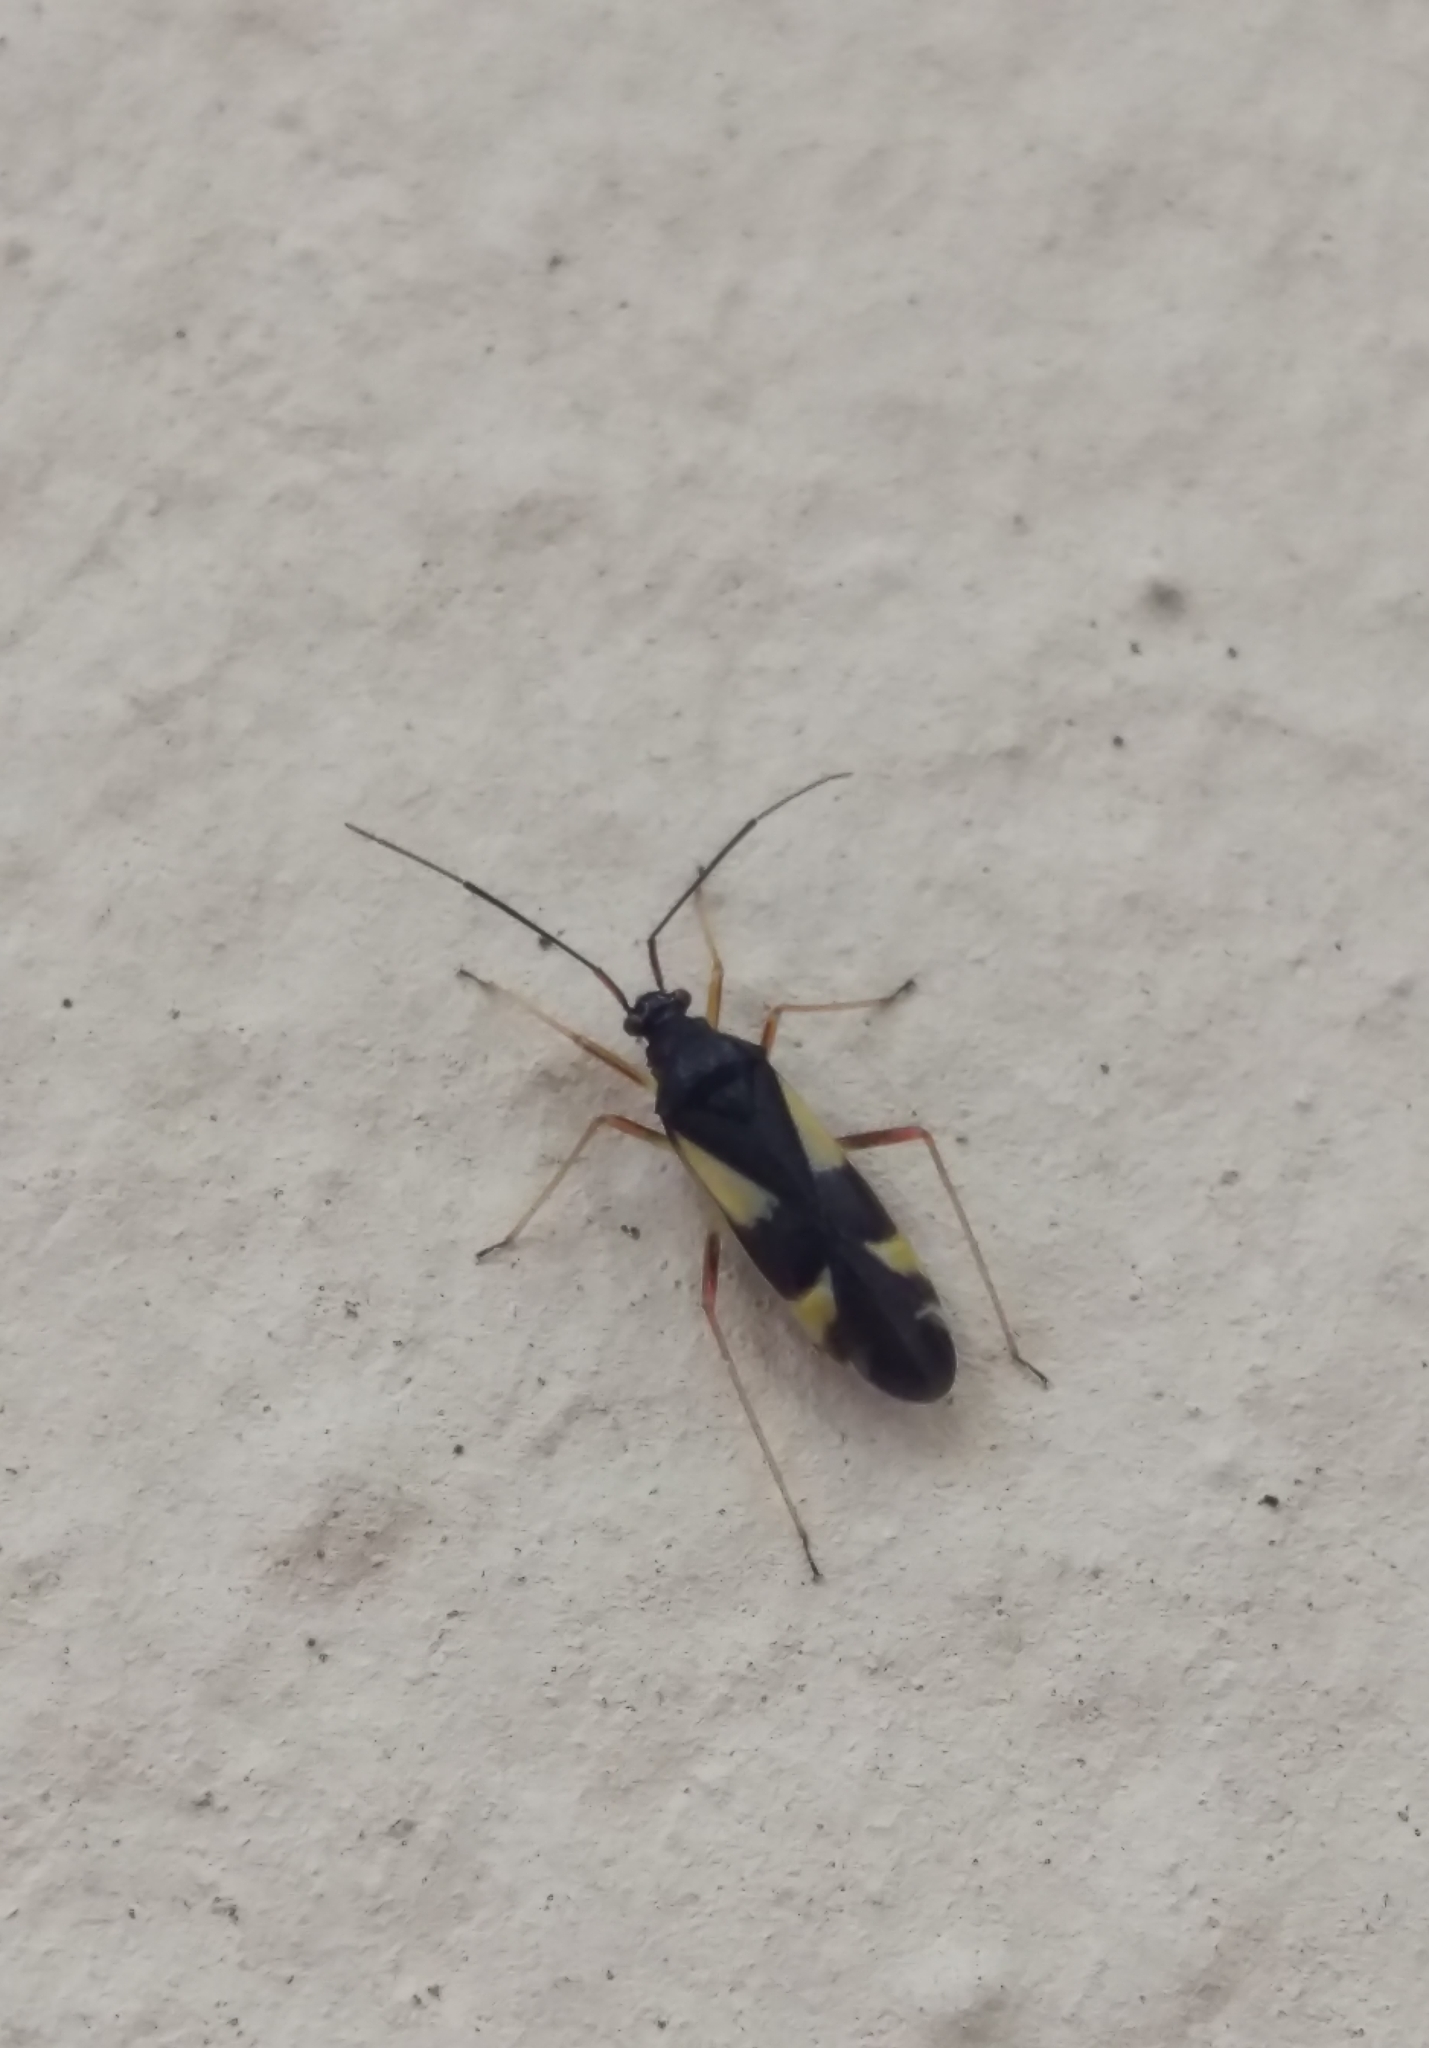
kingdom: Animalia
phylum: Arthropoda
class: Insecta
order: Hemiptera
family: Miridae
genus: Dryophilocoris
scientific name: Dryophilocoris flavoquadrimaculatus
